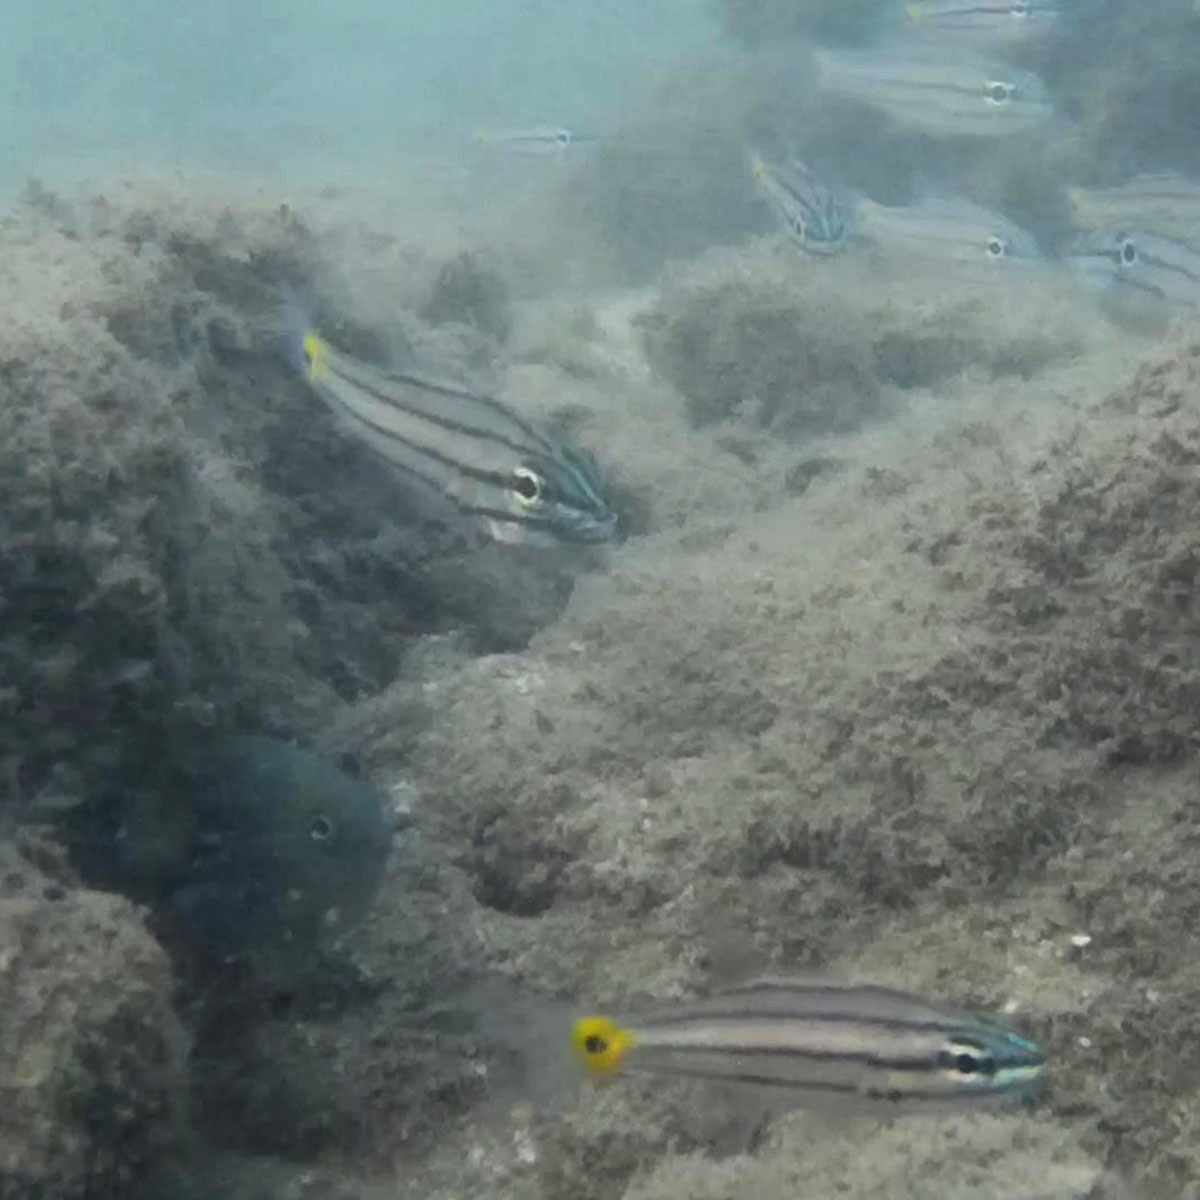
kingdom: Animalia
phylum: Chordata
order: Perciformes
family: Apogonidae
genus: Cheilodipterus
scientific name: Cheilodipterus quinquelineatus
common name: Five-lined cardinalfish
